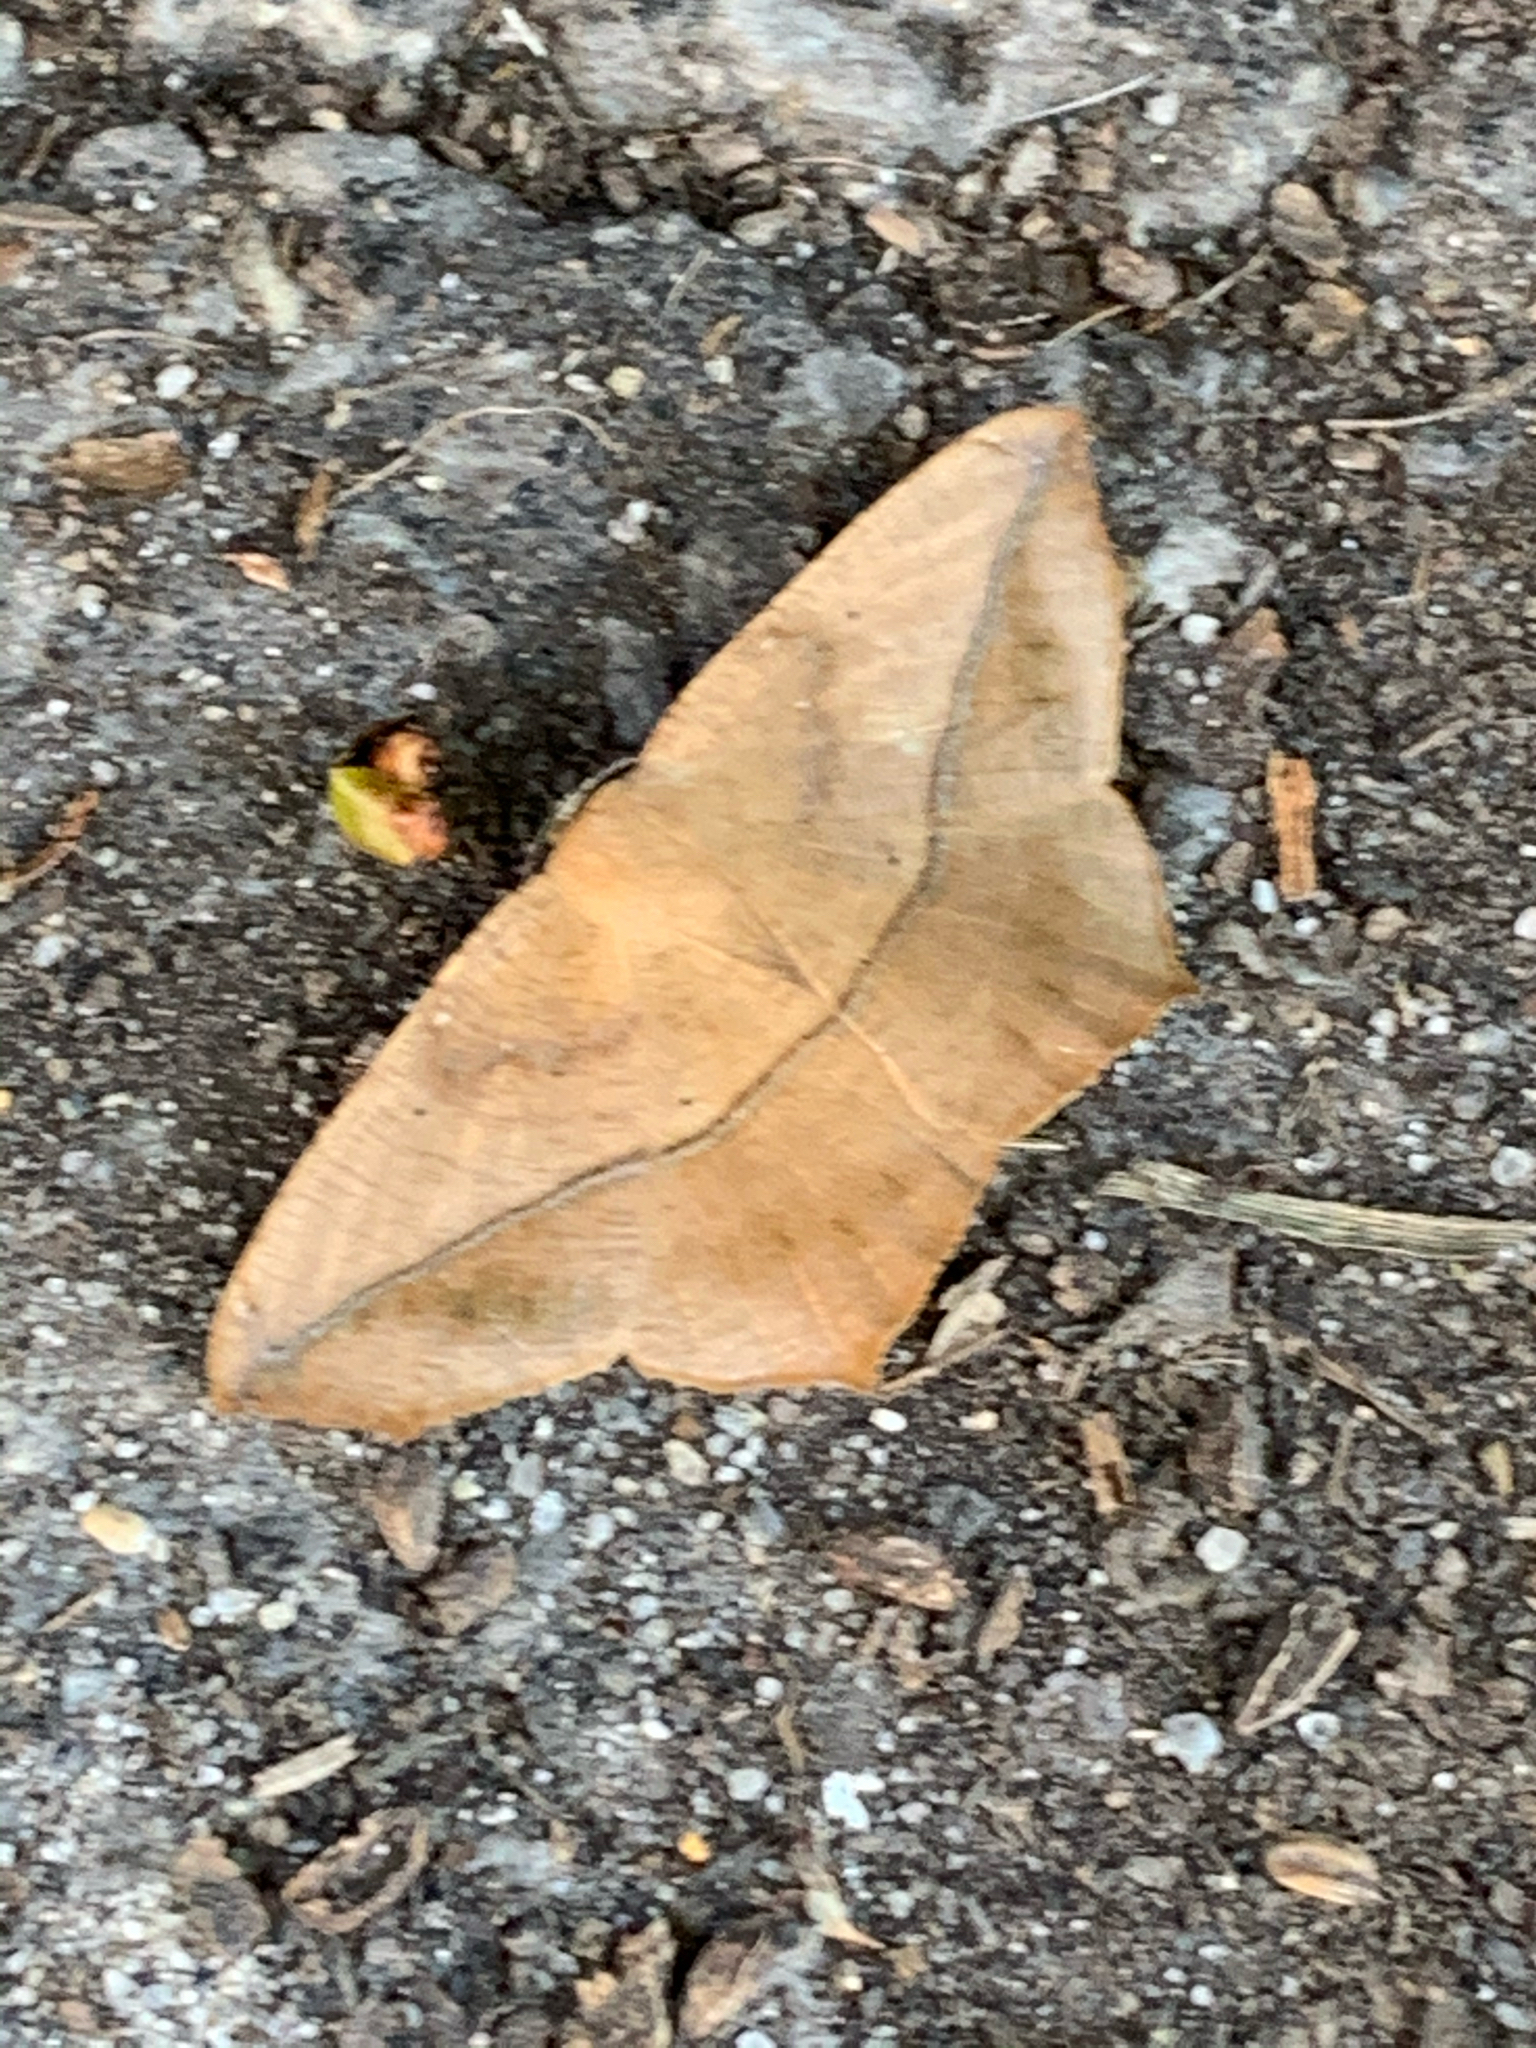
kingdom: Animalia
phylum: Arthropoda
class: Insecta
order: Lepidoptera
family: Geometridae
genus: Prochoerodes
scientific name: Prochoerodes lineola
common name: Large maple spanworm
